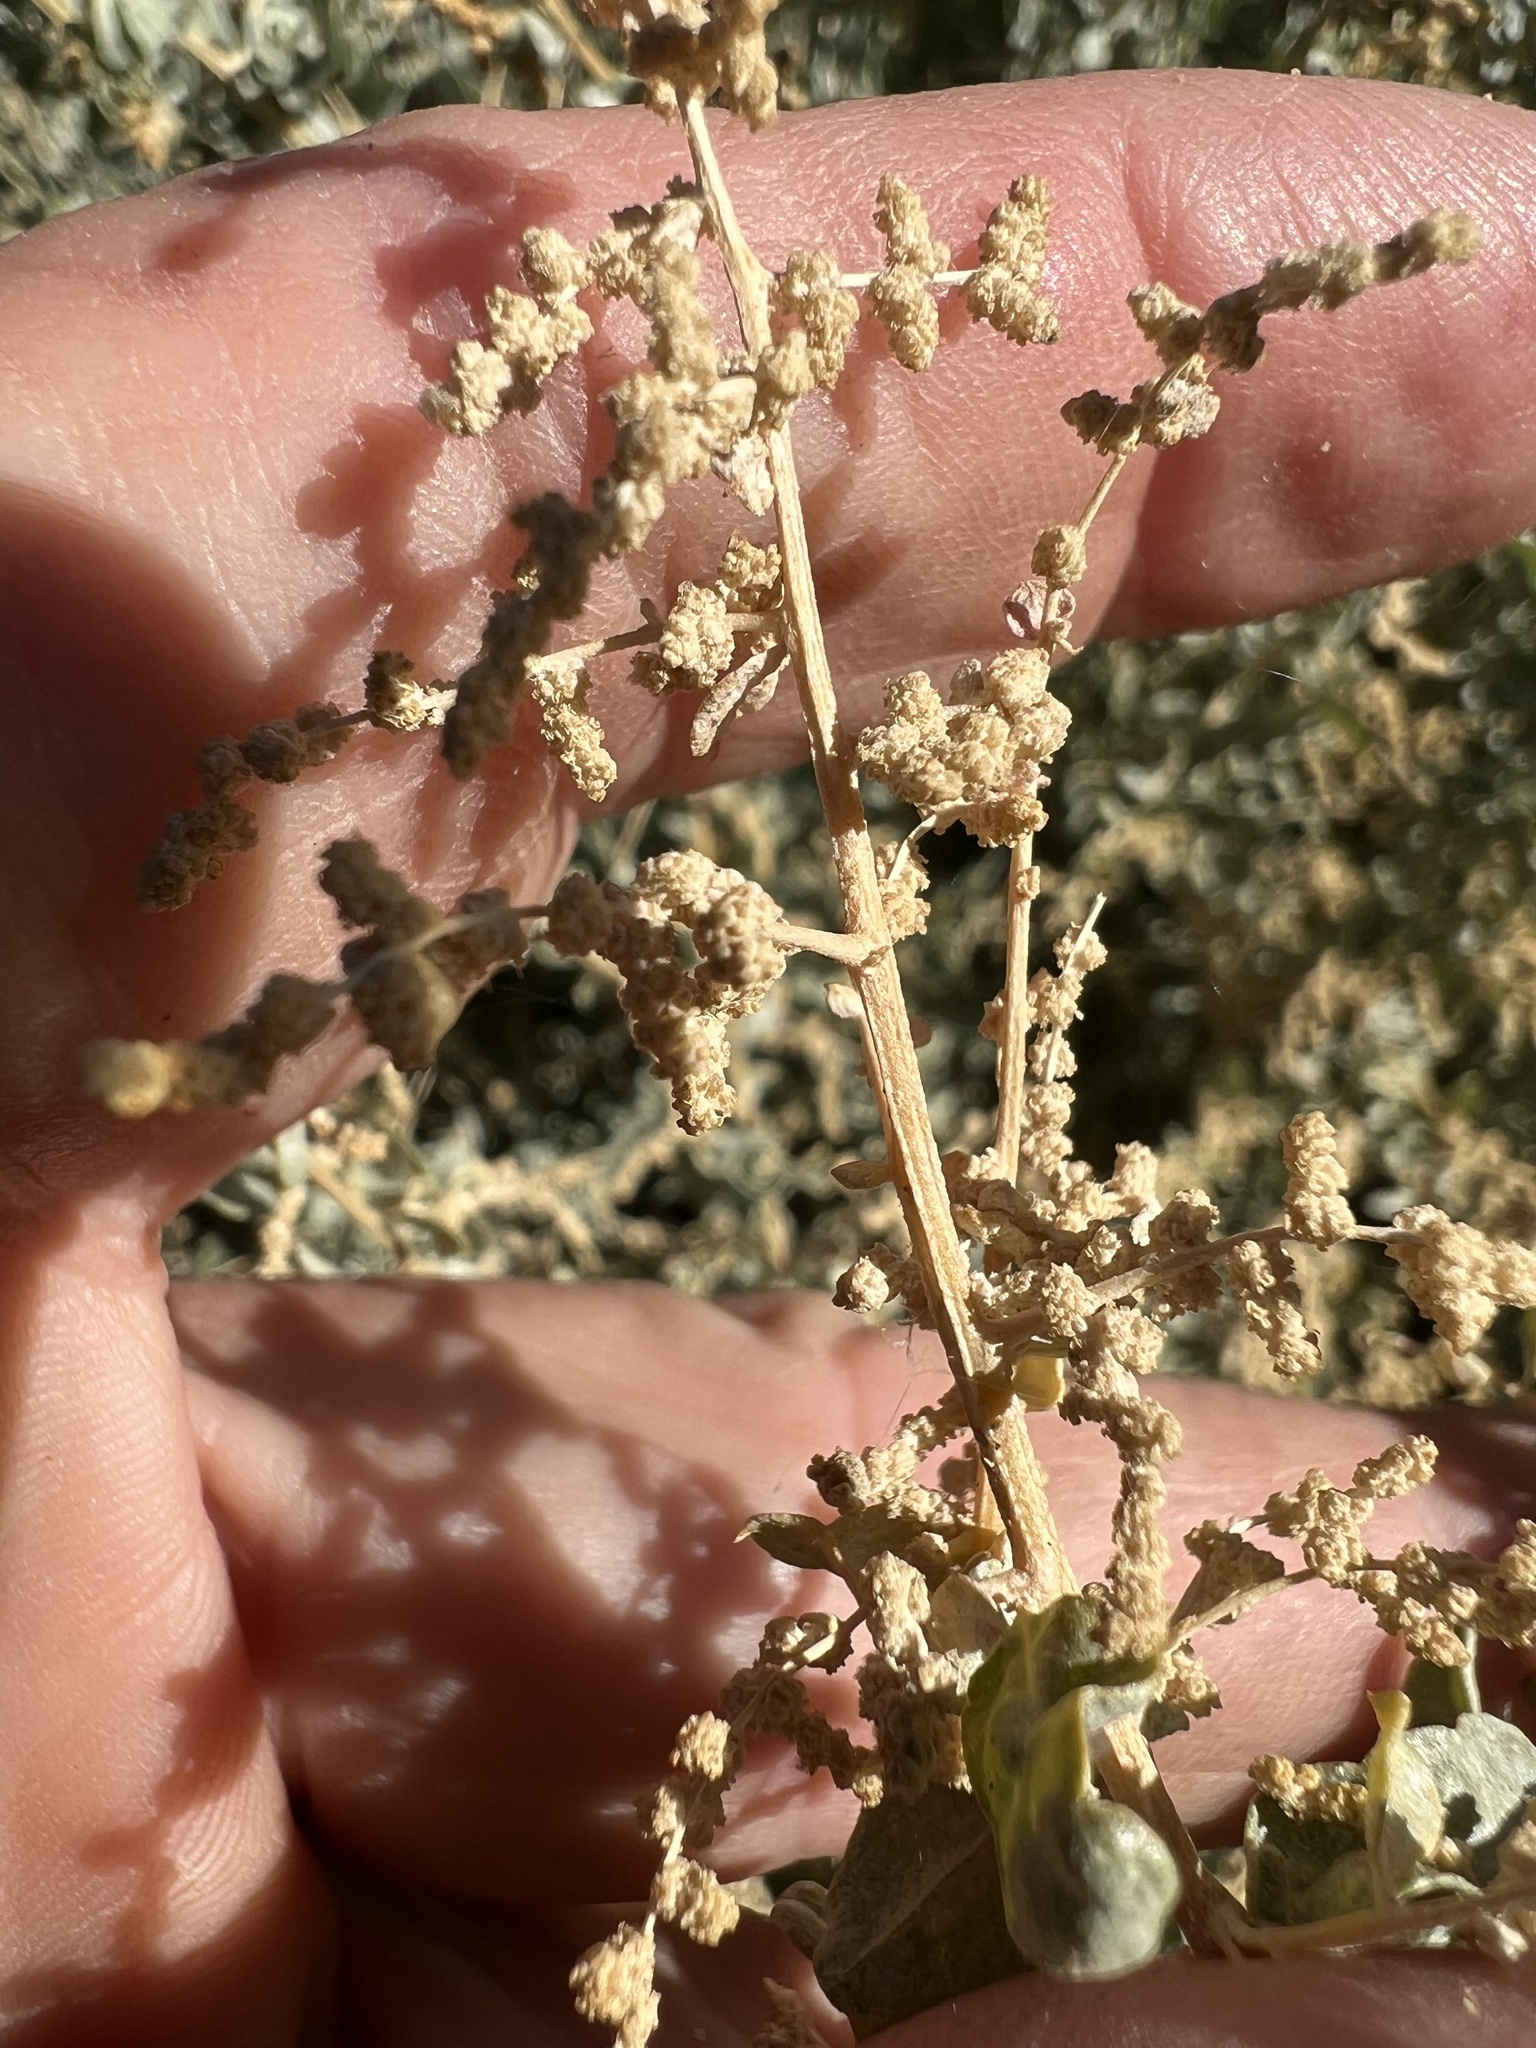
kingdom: Plantae
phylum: Tracheophyta
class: Magnoliopsida
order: Caryophyllales
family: Amaranthaceae
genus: Atriplex
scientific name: Atriplex torreyi
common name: Torrey's saltbush
